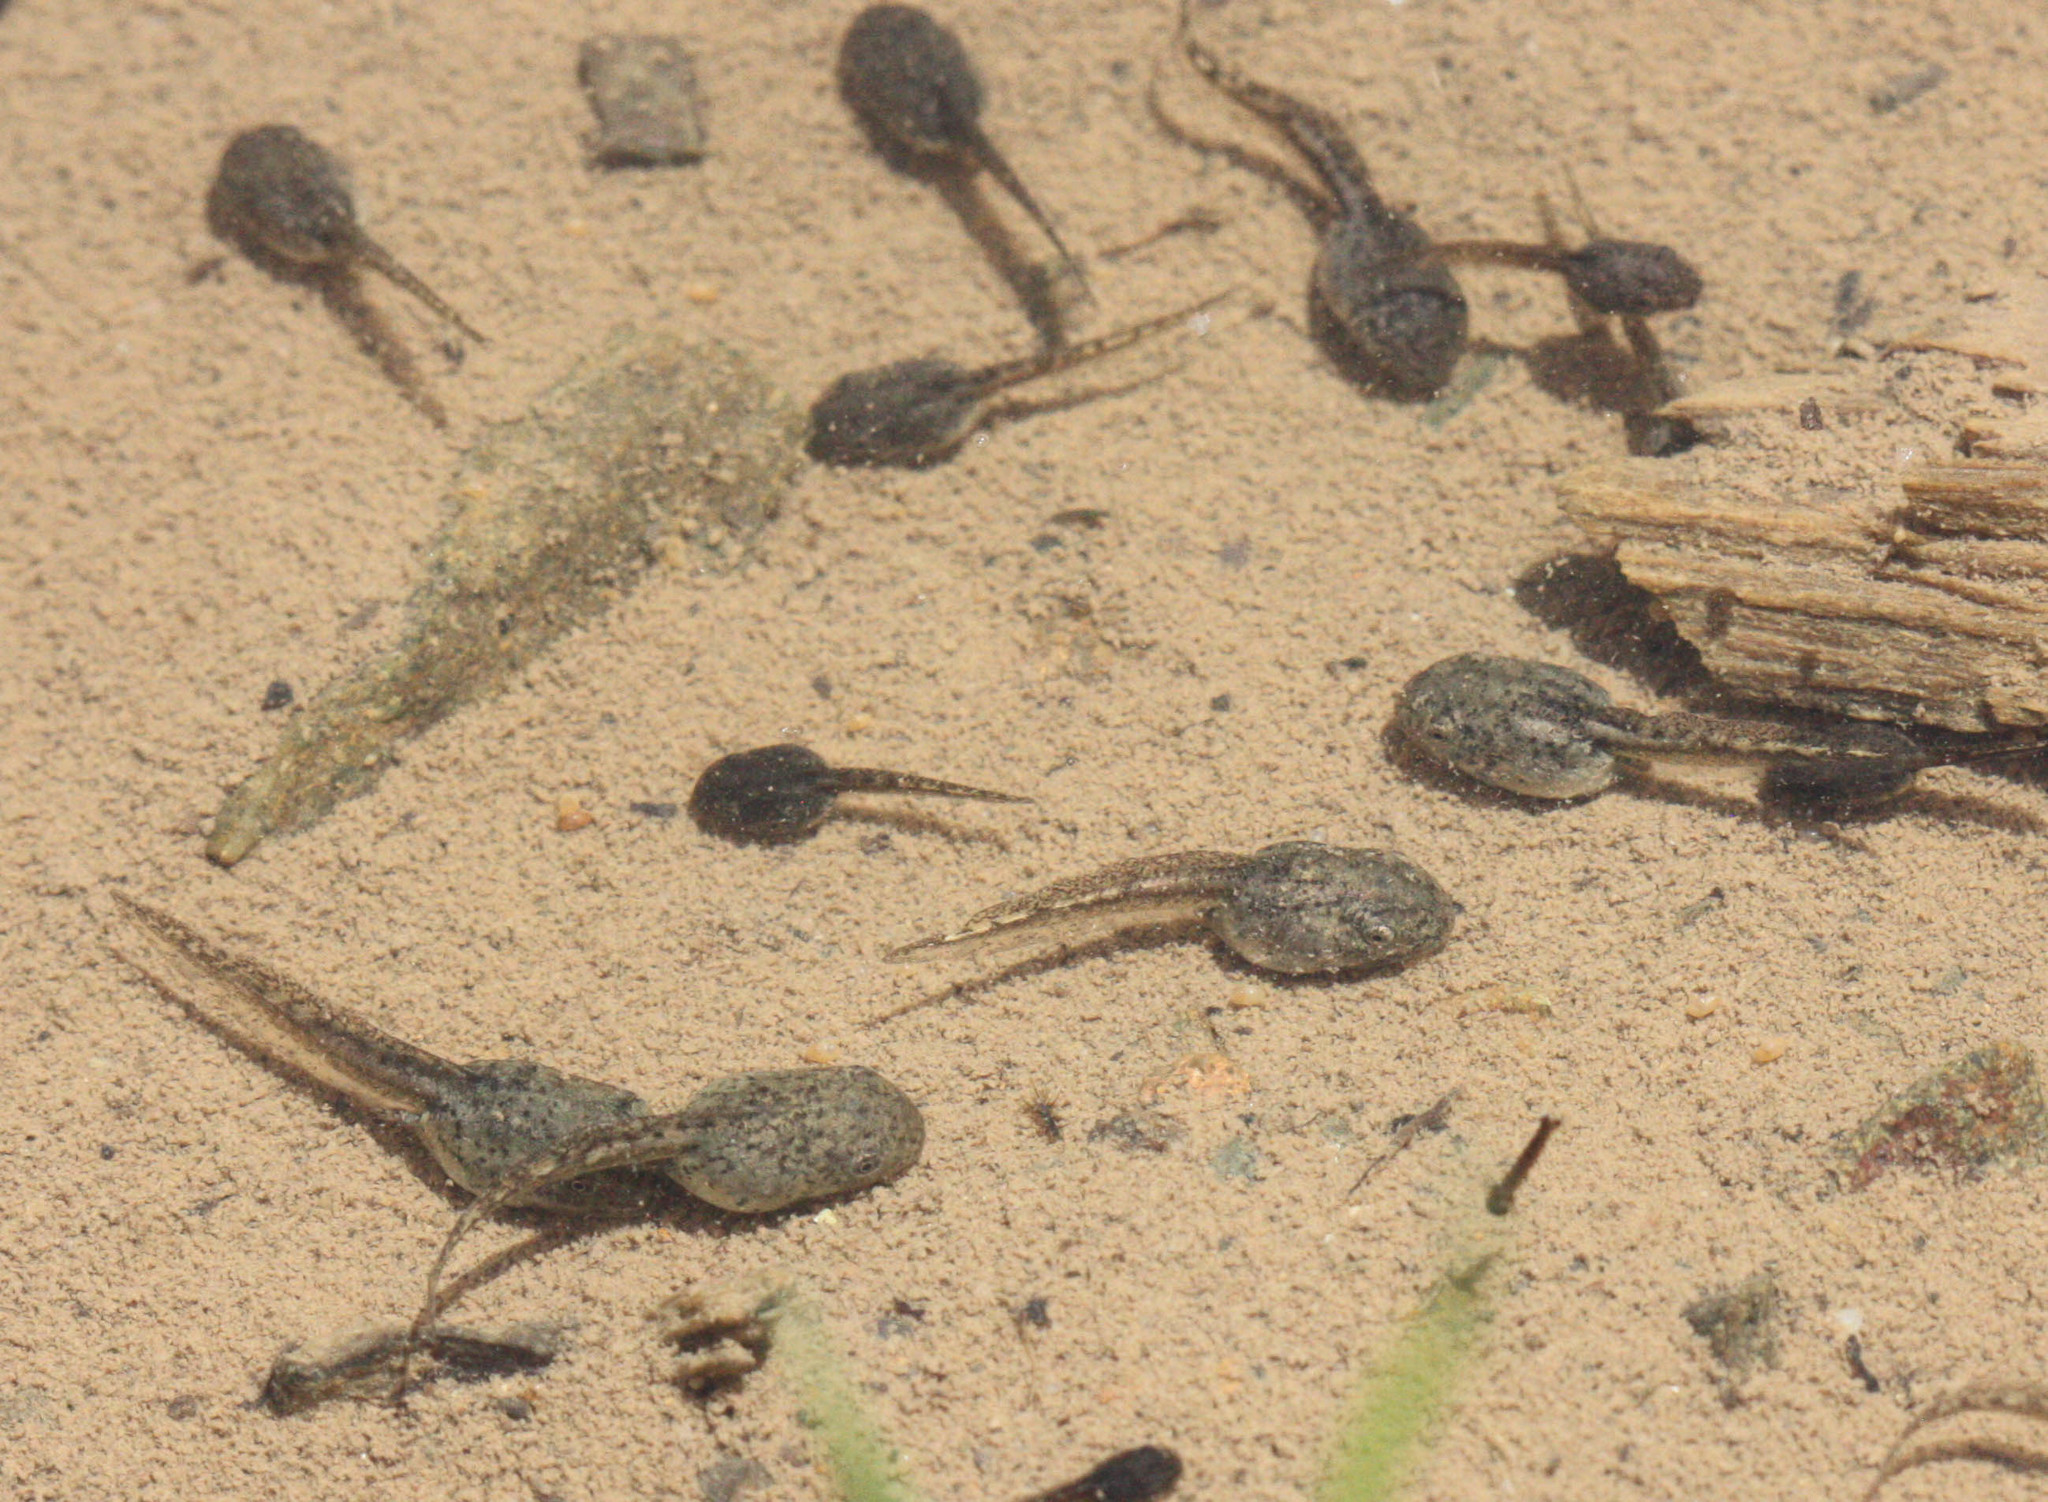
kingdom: Animalia
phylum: Chordata
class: Amphibia
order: Anura
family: Hylidae
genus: Pseudacris
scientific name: Pseudacris regilla
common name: Pacific chorus frog
